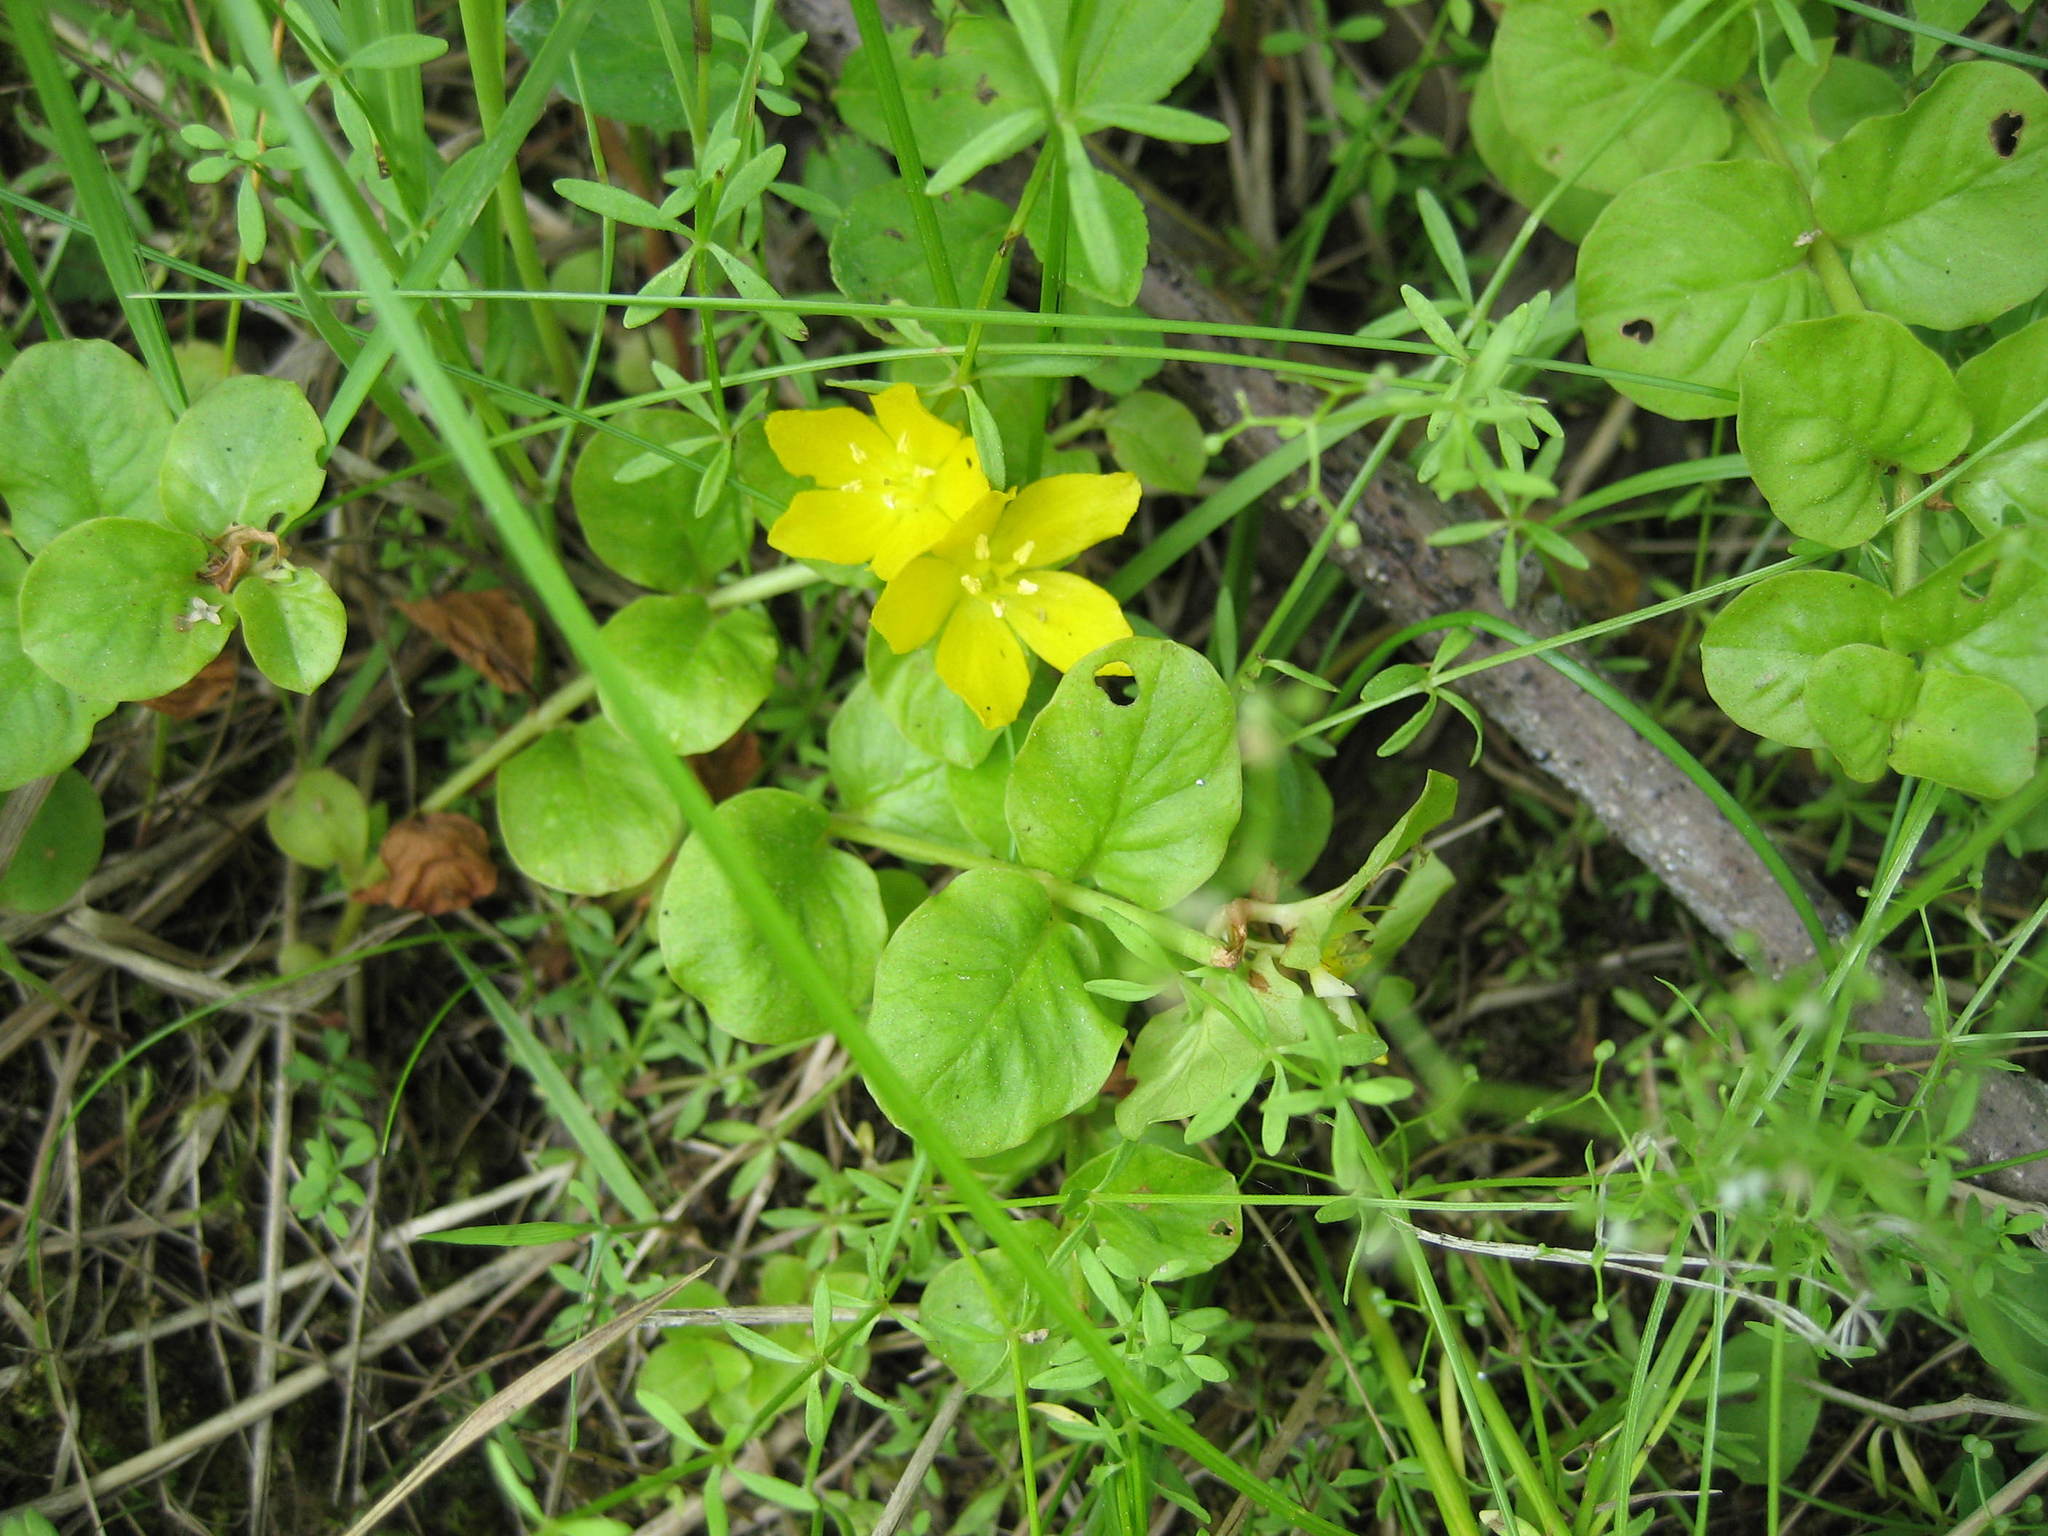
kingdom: Plantae
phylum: Tracheophyta
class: Magnoliopsida
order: Ericales
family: Primulaceae
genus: Lysimachia
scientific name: Lysimachia nummularia
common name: Moneywort
